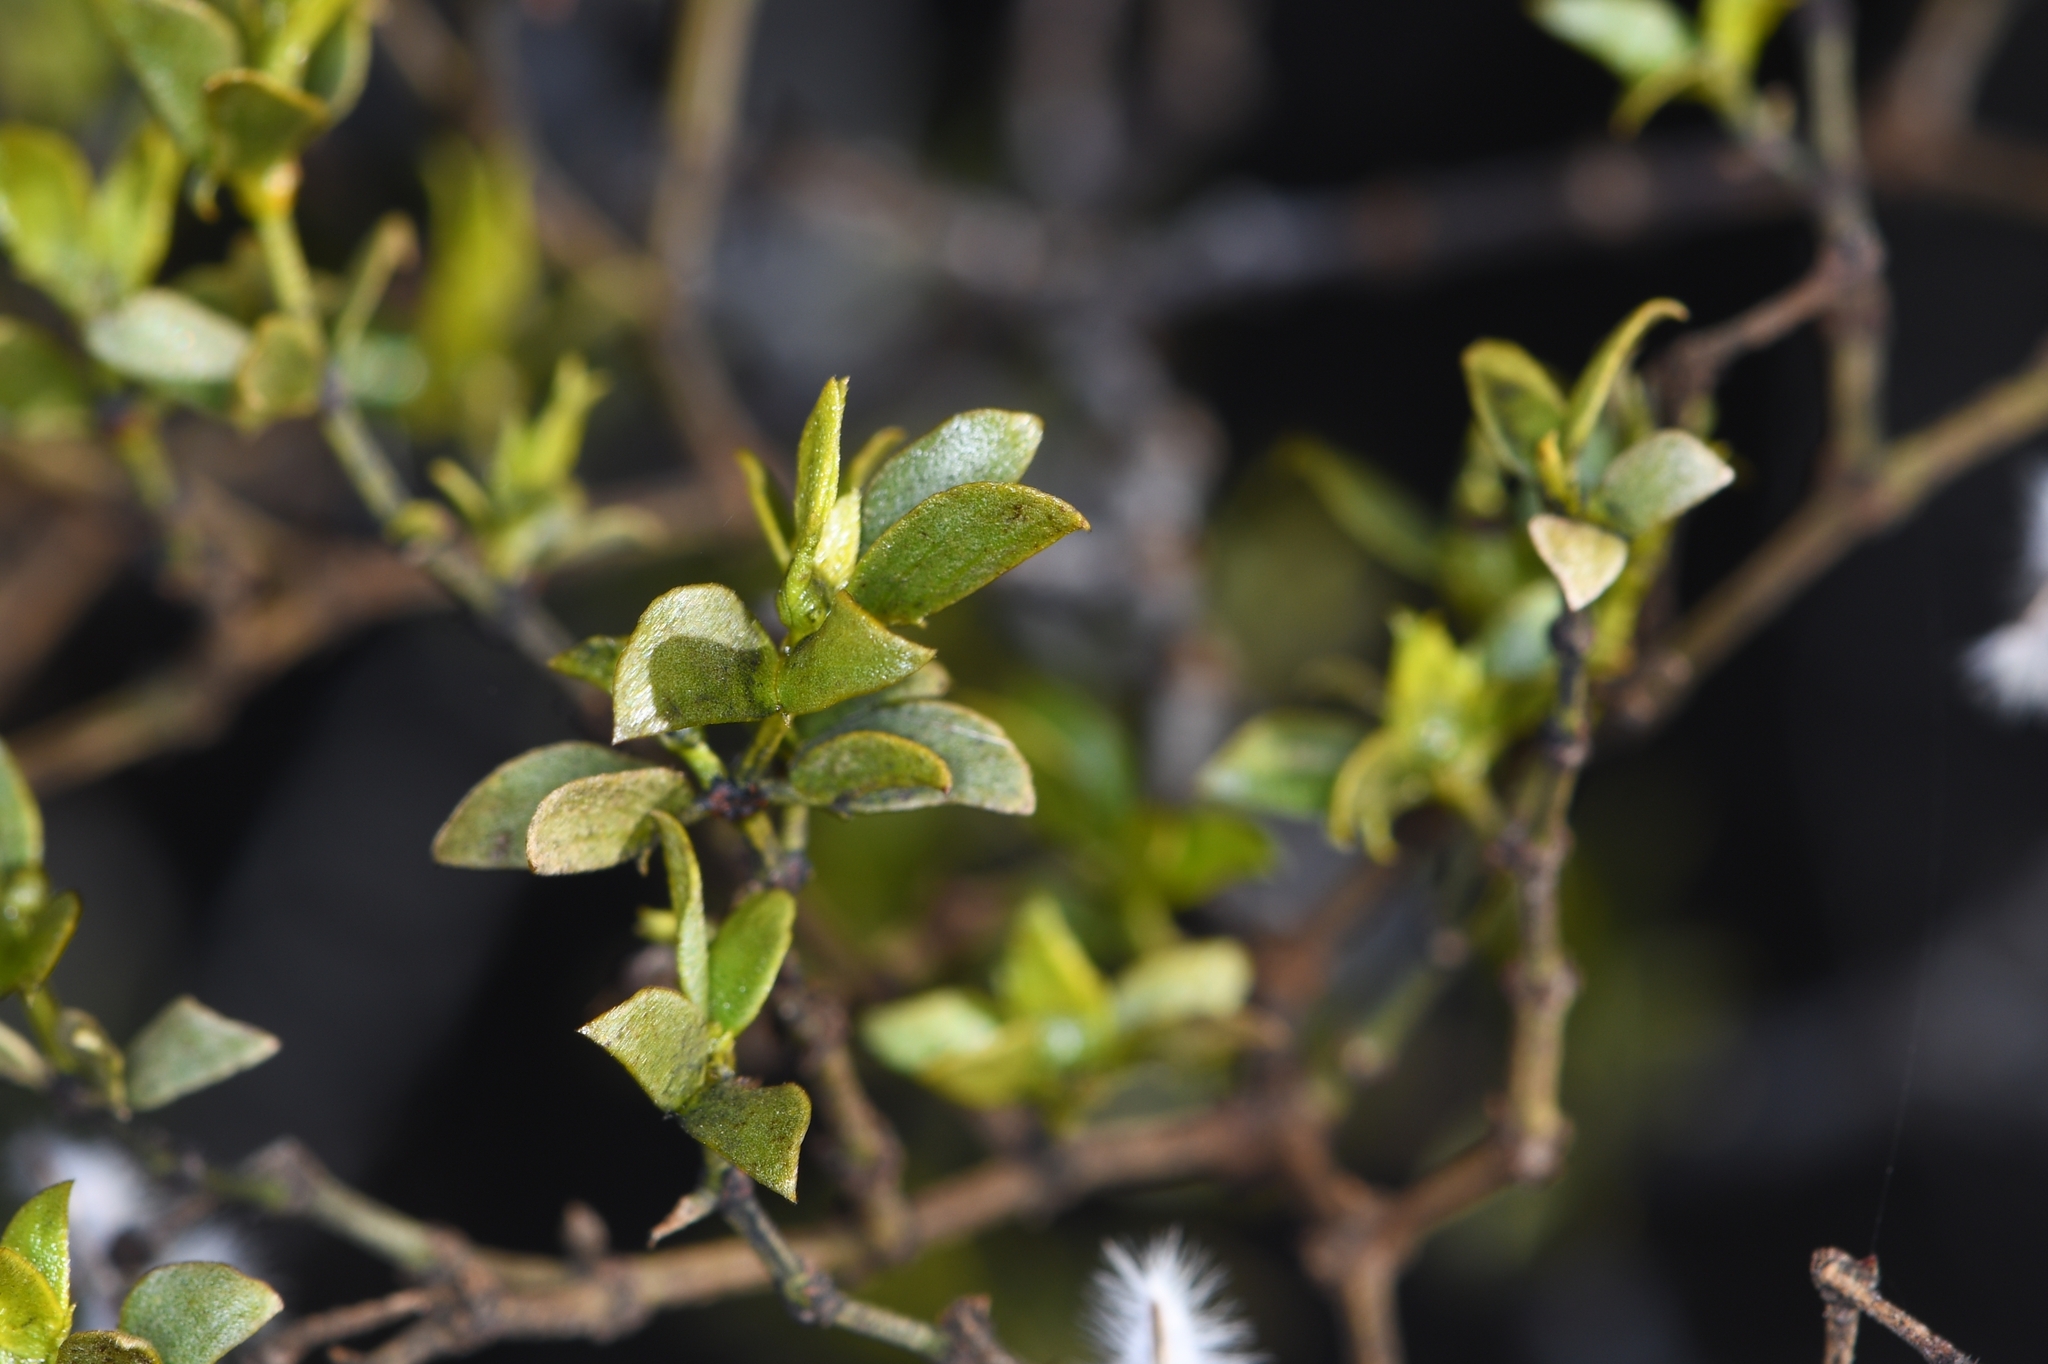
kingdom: Plantae
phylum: Tracheophyta
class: Magnoliopsida
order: Zygophyllales
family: Zygophyllaceae
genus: Larrea
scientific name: Larrea tridentata
